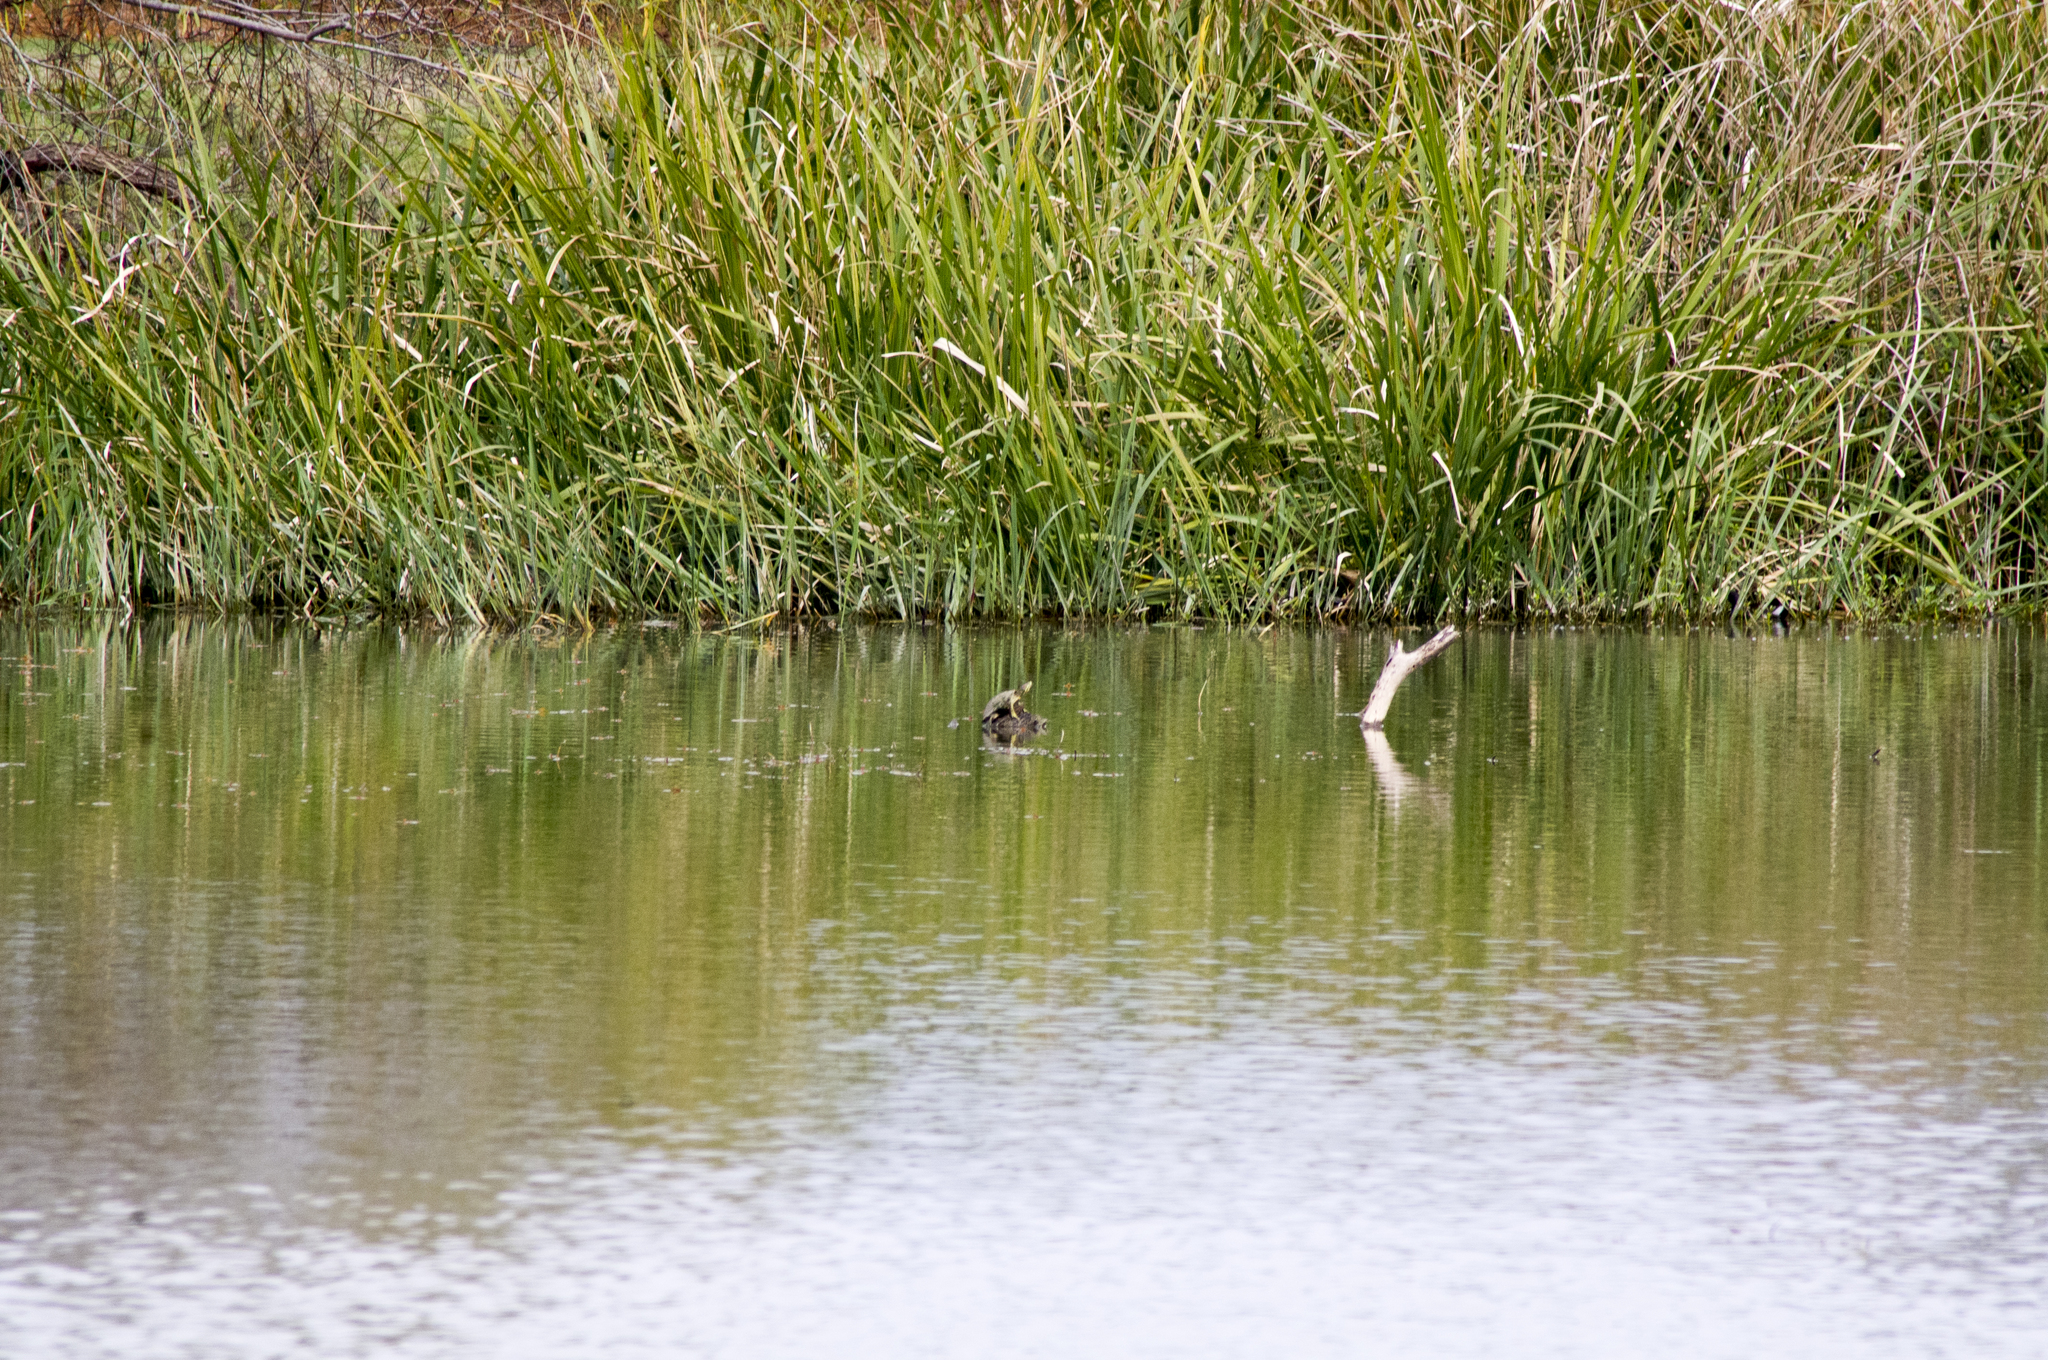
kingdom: Animalia
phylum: Chordata
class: Testudines
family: Emydidae
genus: Trachemys
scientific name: Trachemys scripta
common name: Slider
